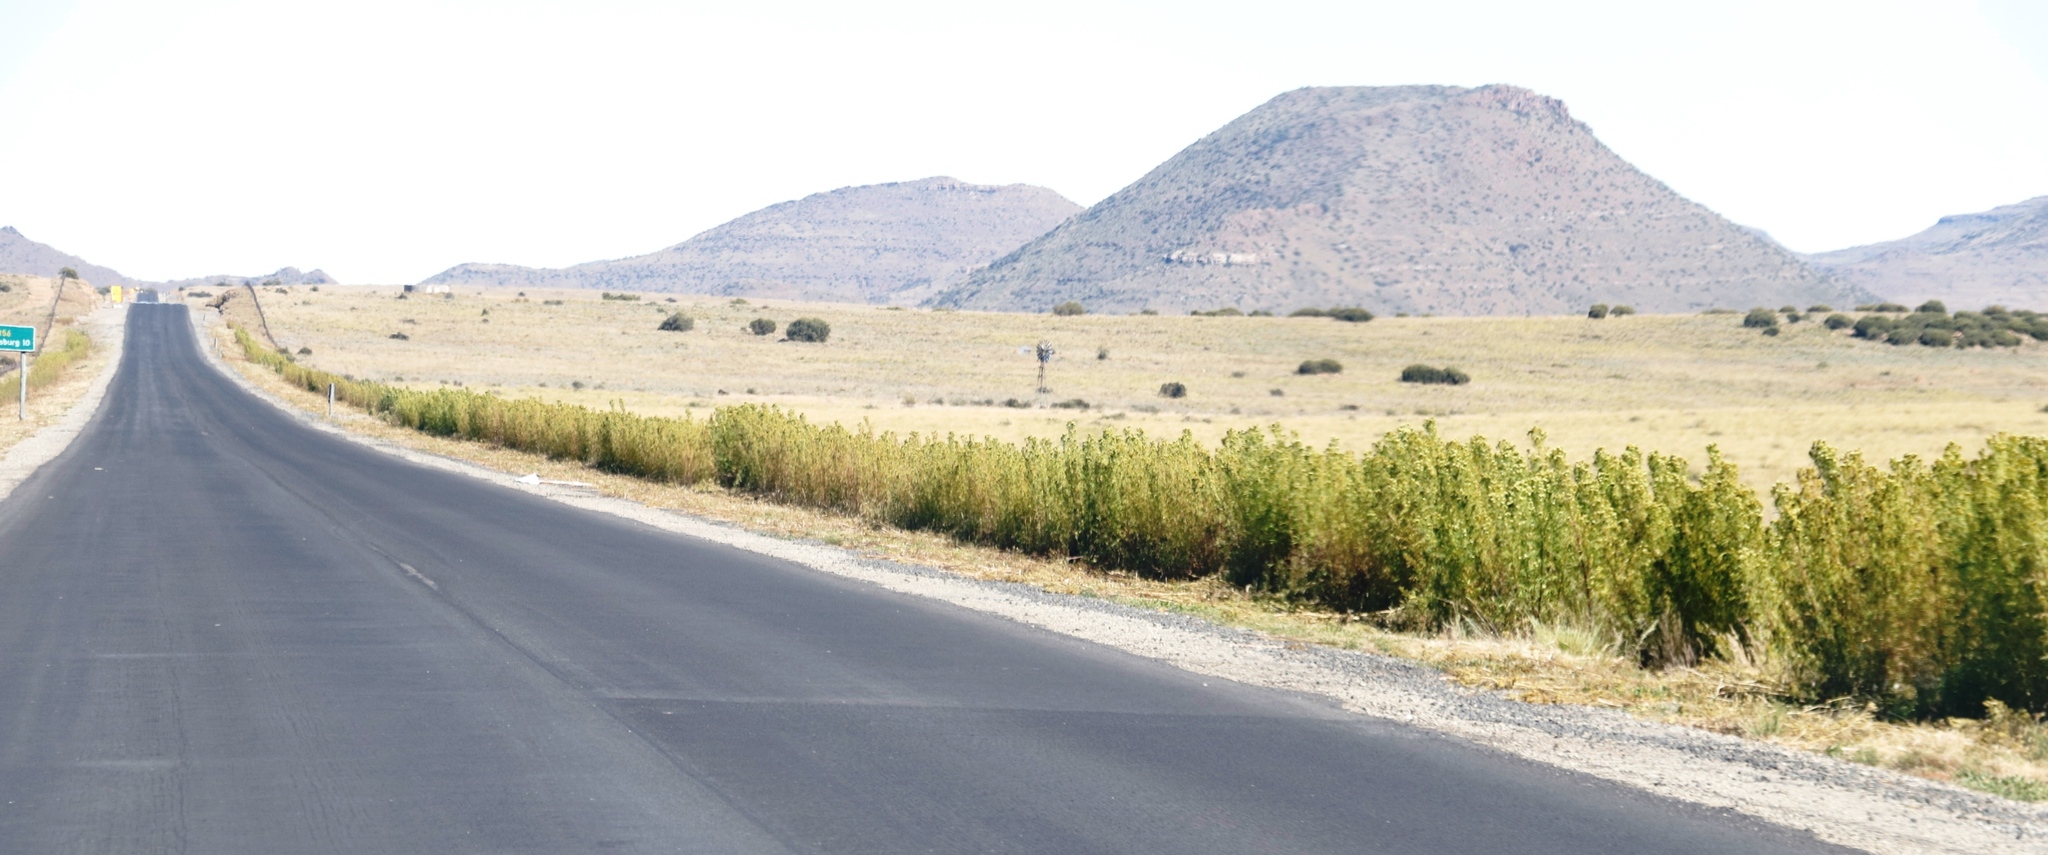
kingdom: Plantae
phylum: Tracheophyta
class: Magnoliopsida
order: Asterales
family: Asteraceae
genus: Tagetes
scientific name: Tagetes minuta
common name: Muster john henry
